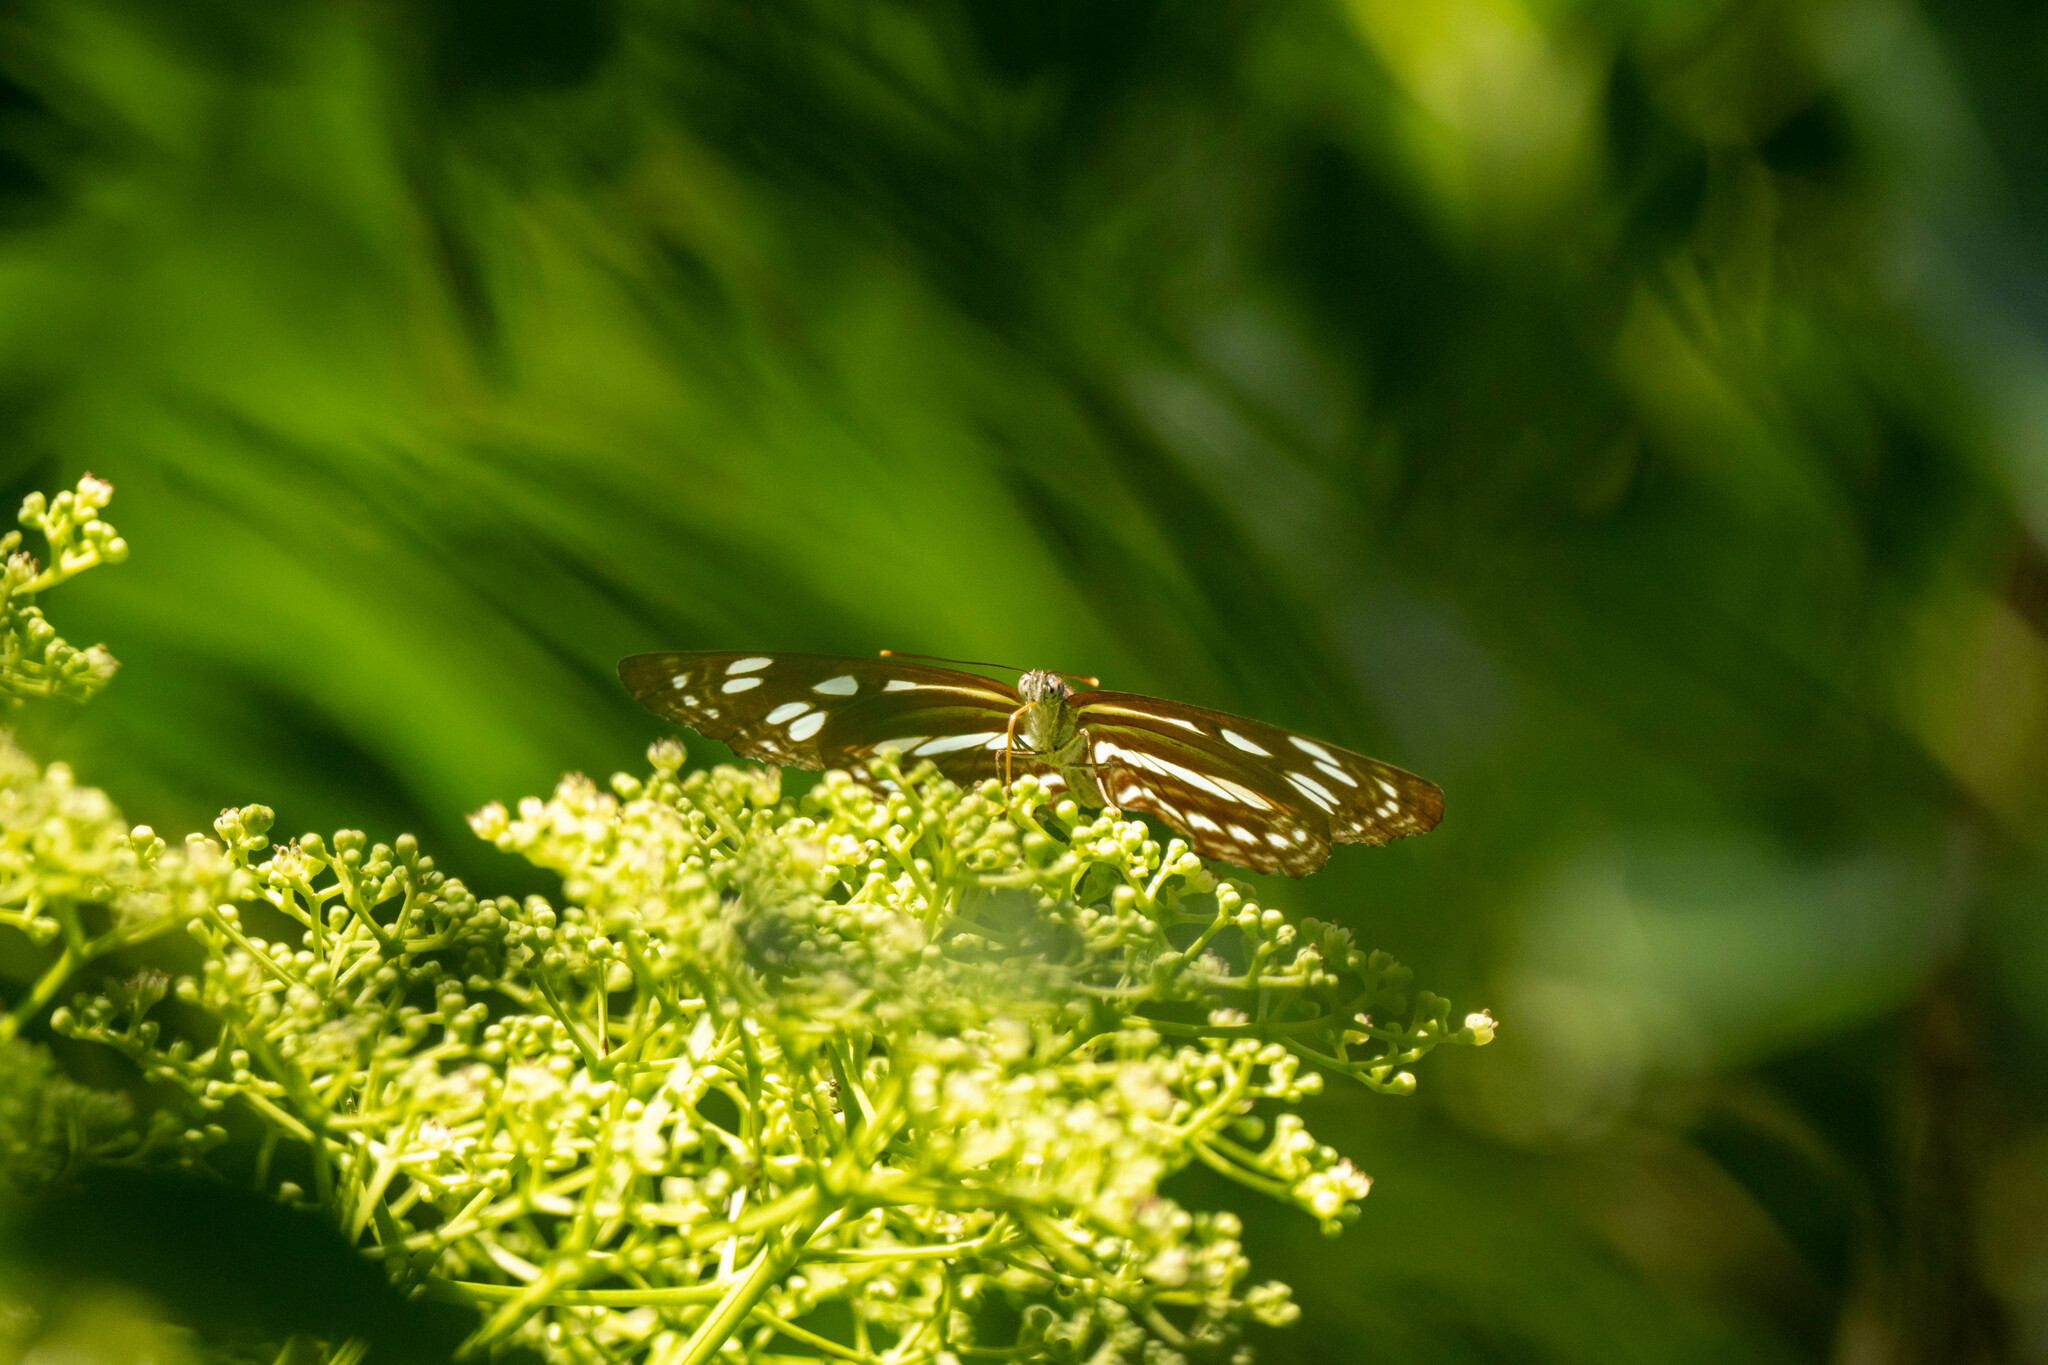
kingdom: Animalia
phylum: Arthropoda
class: Insecta
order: Lepidoptera
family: Nymphalidae
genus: Phaedyma
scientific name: Phaedyma columella
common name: Short banded sailer
